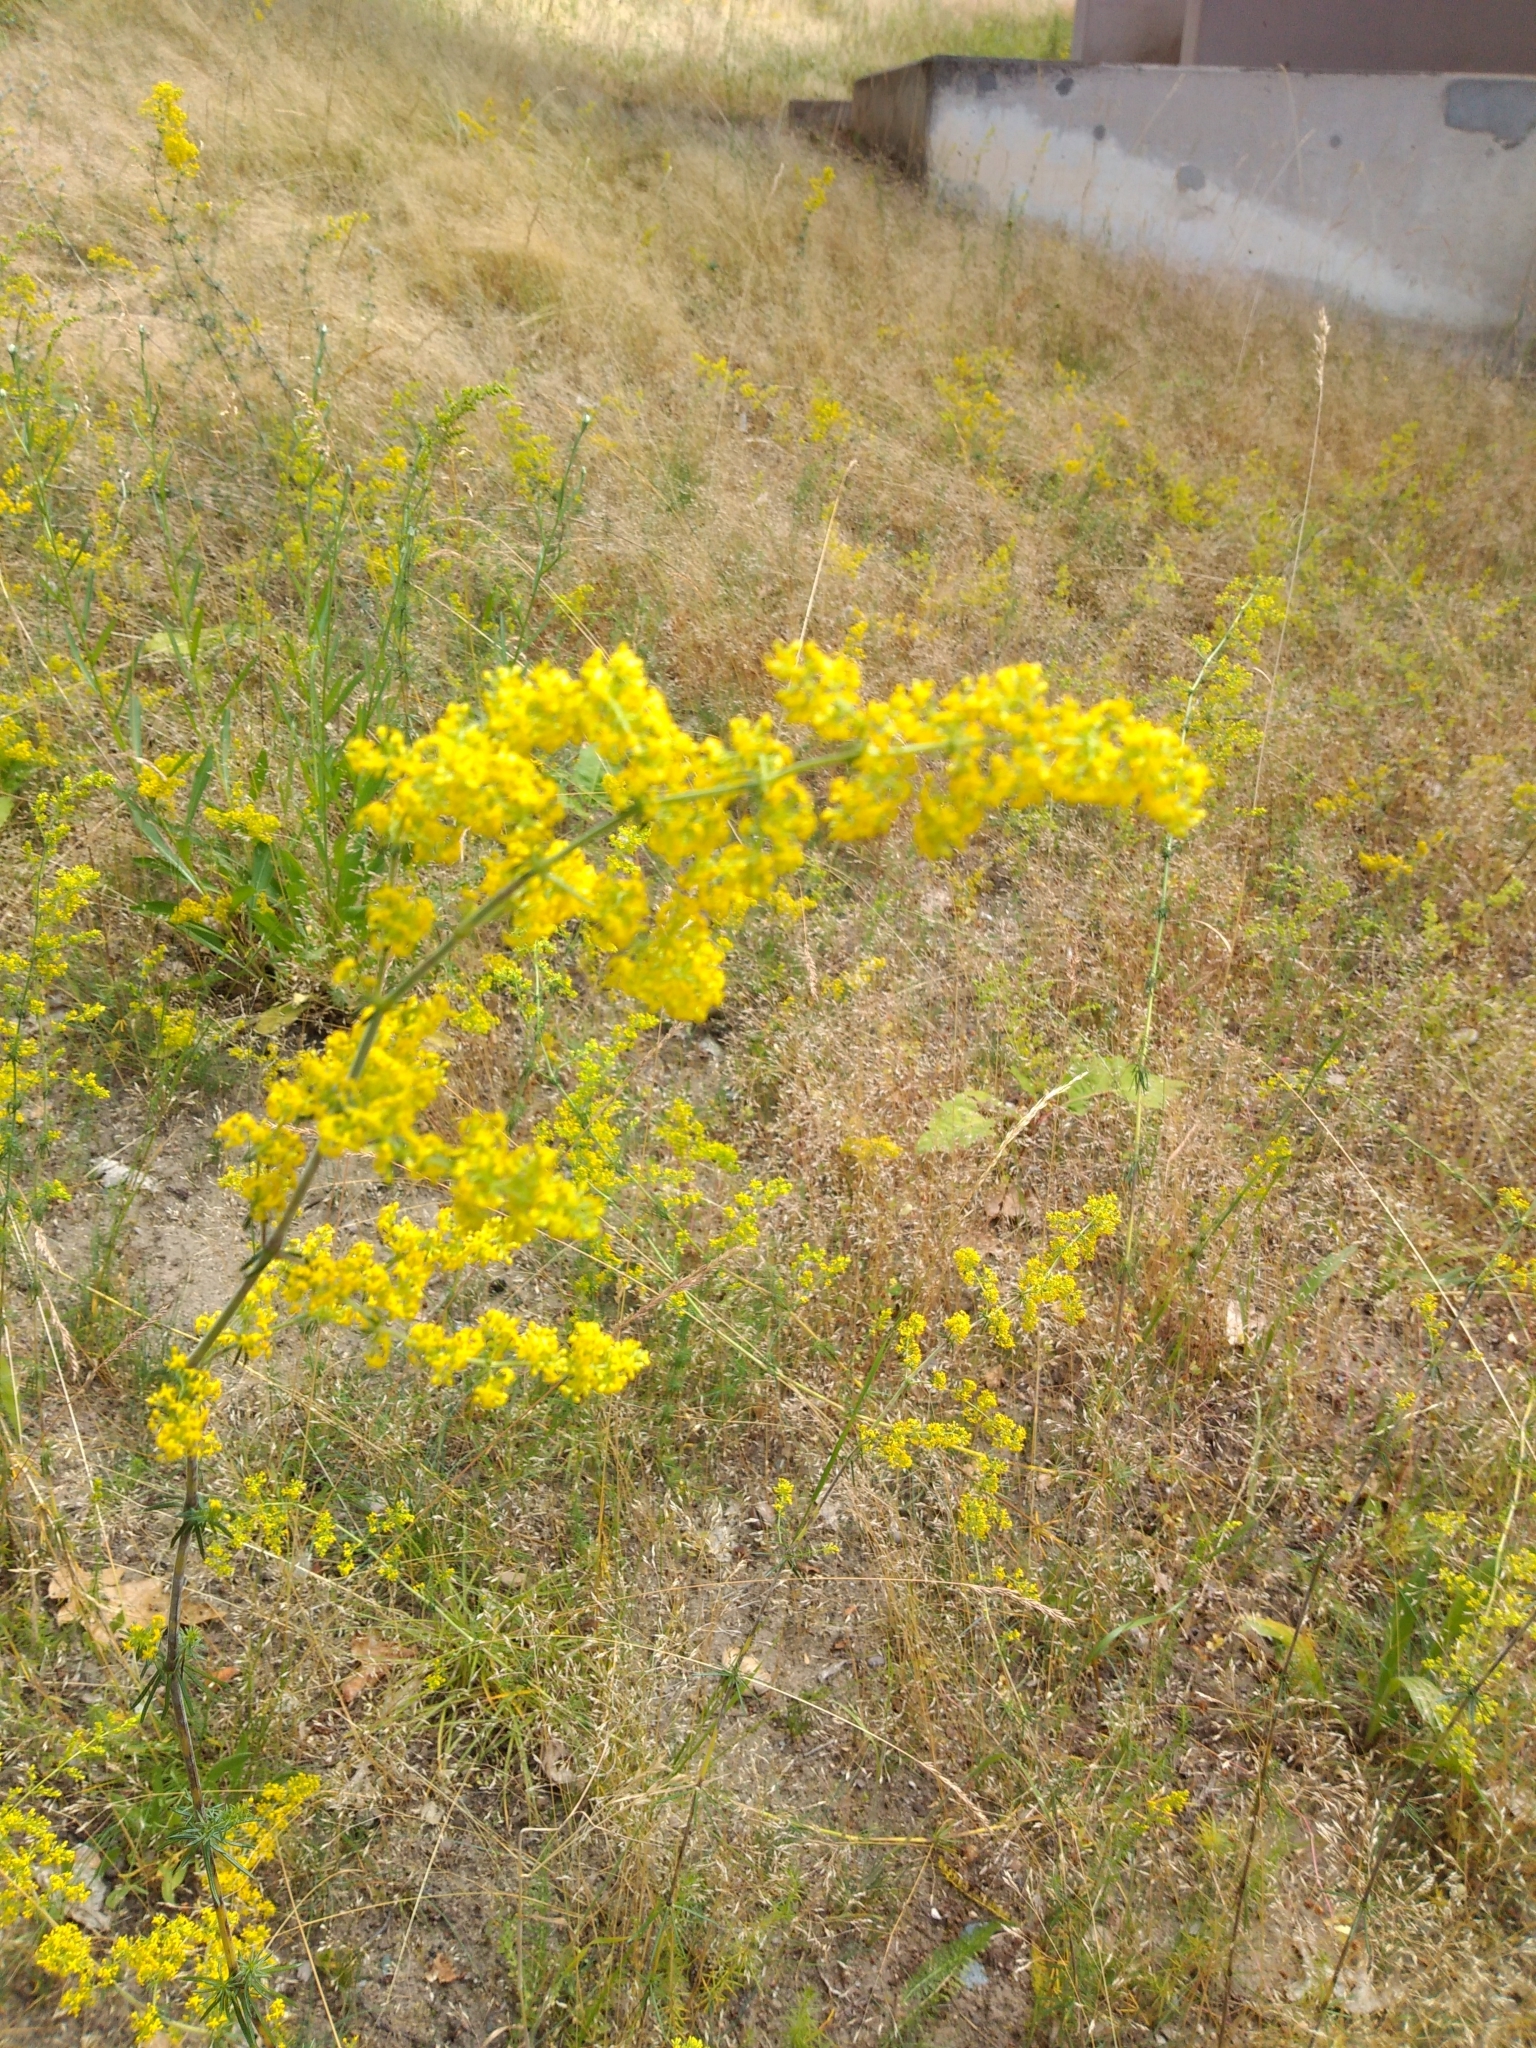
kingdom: Plantae
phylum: Tracheophyta
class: Magnoliopsida
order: Gentianales
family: Rubiaceae
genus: Galium
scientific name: Galium verum
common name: Lady's bedstraw
